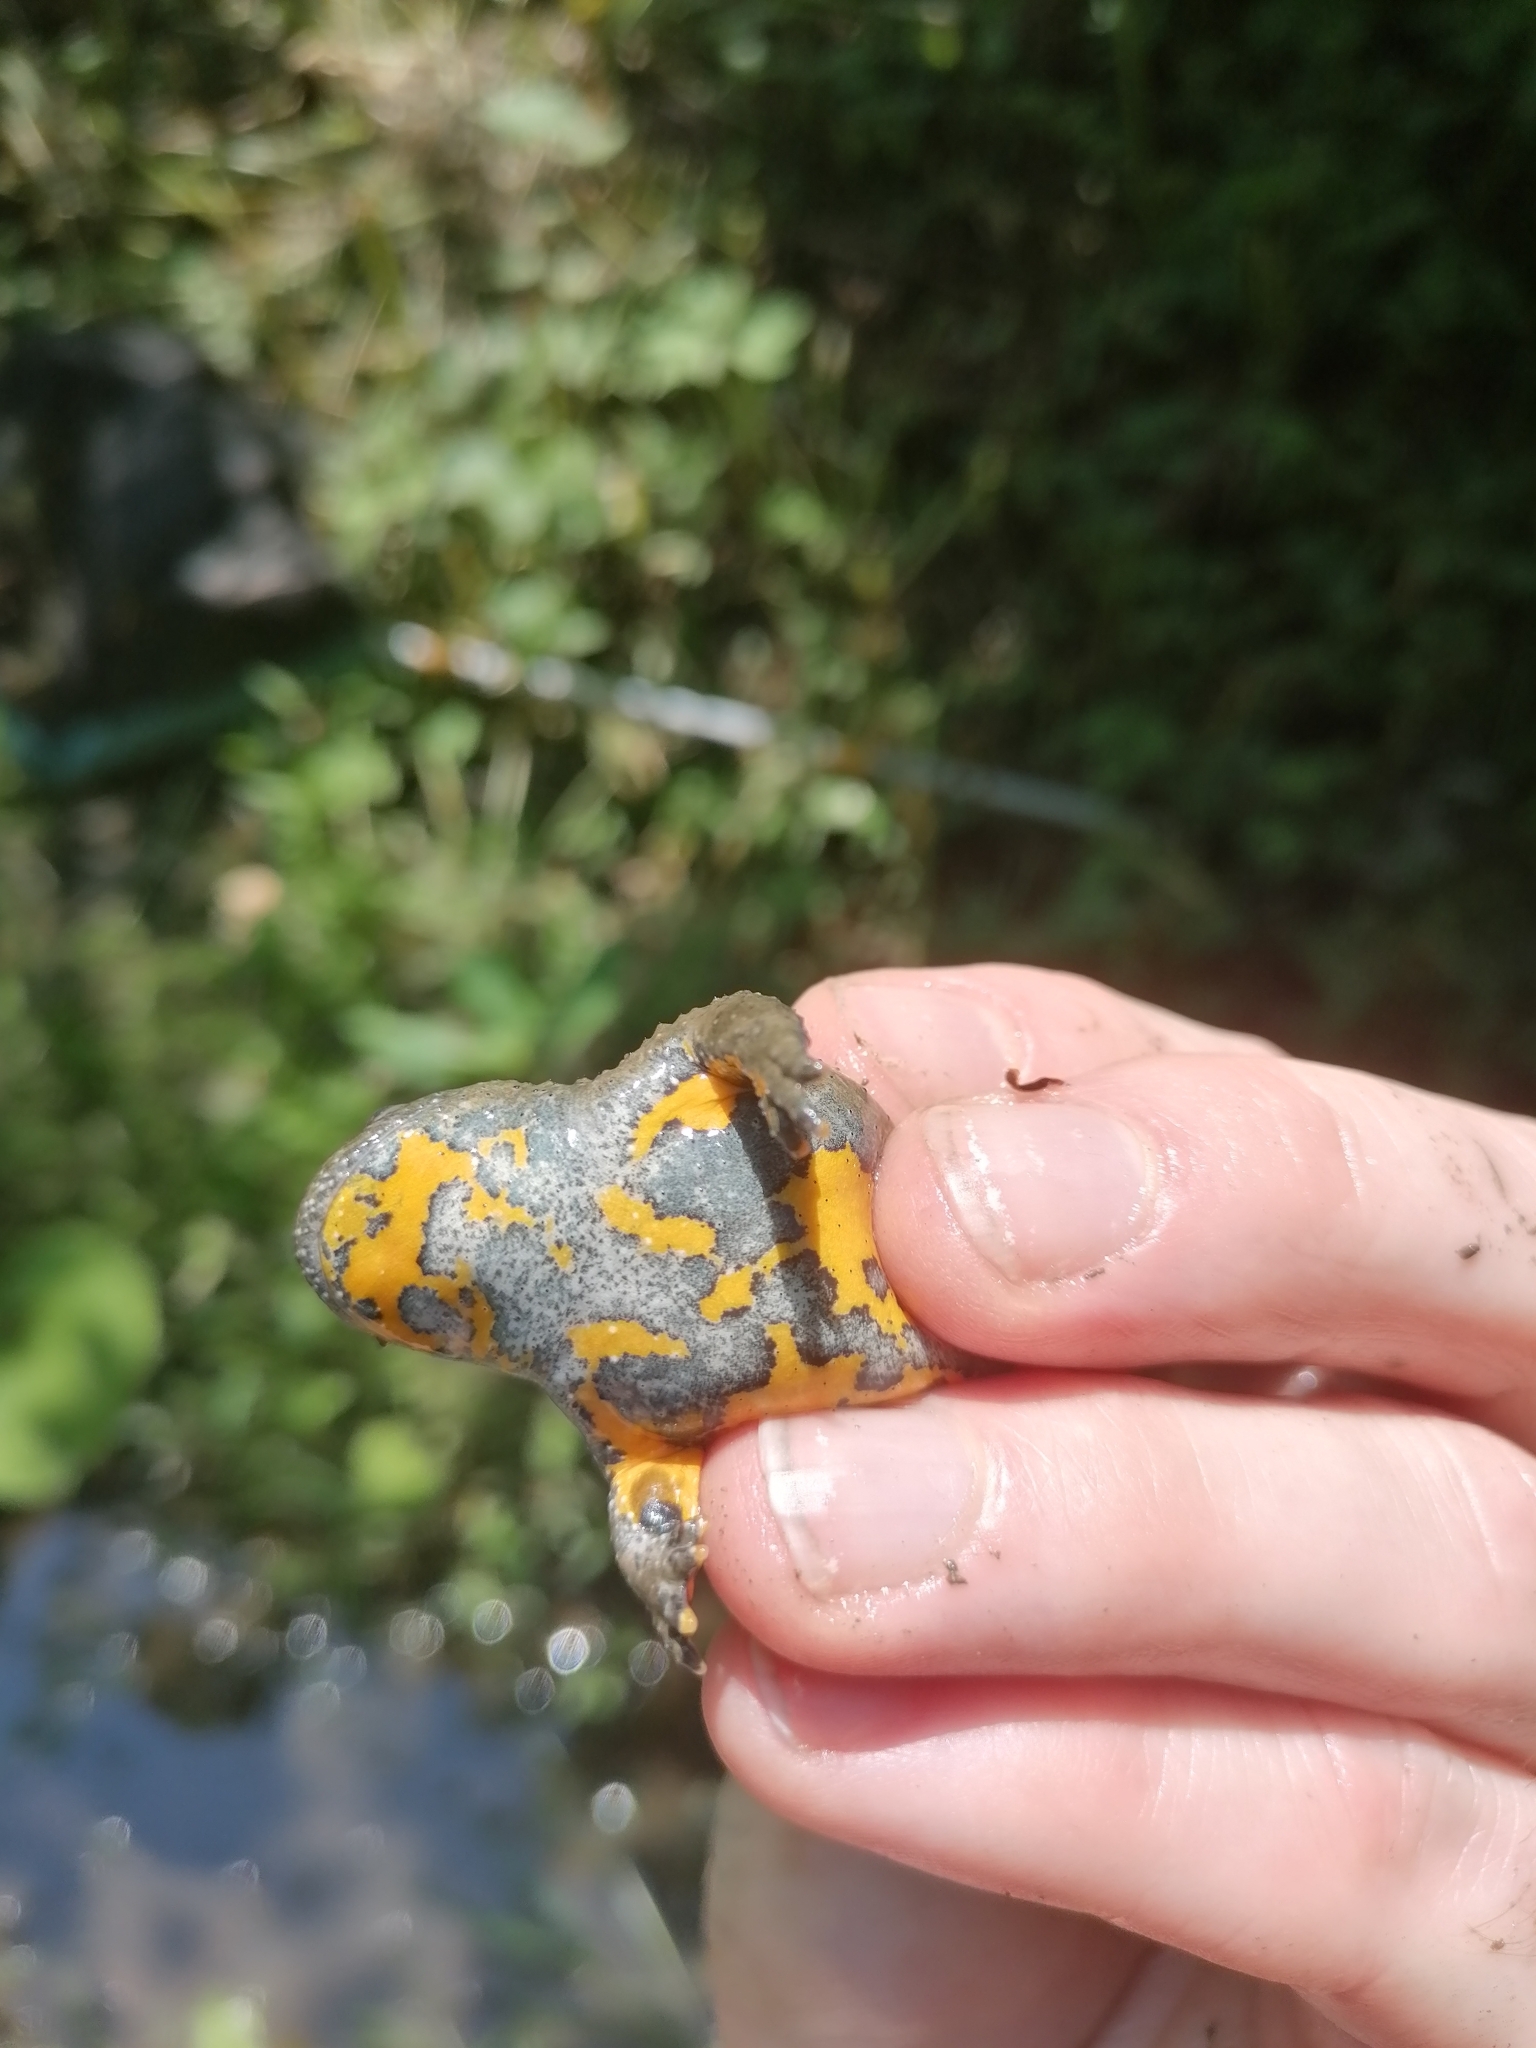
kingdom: Animalia
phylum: Chordata
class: Amphibia
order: Anura
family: Bombinatoridae
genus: Bombina
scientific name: Bombina variegata
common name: Yellow-bellied toad
